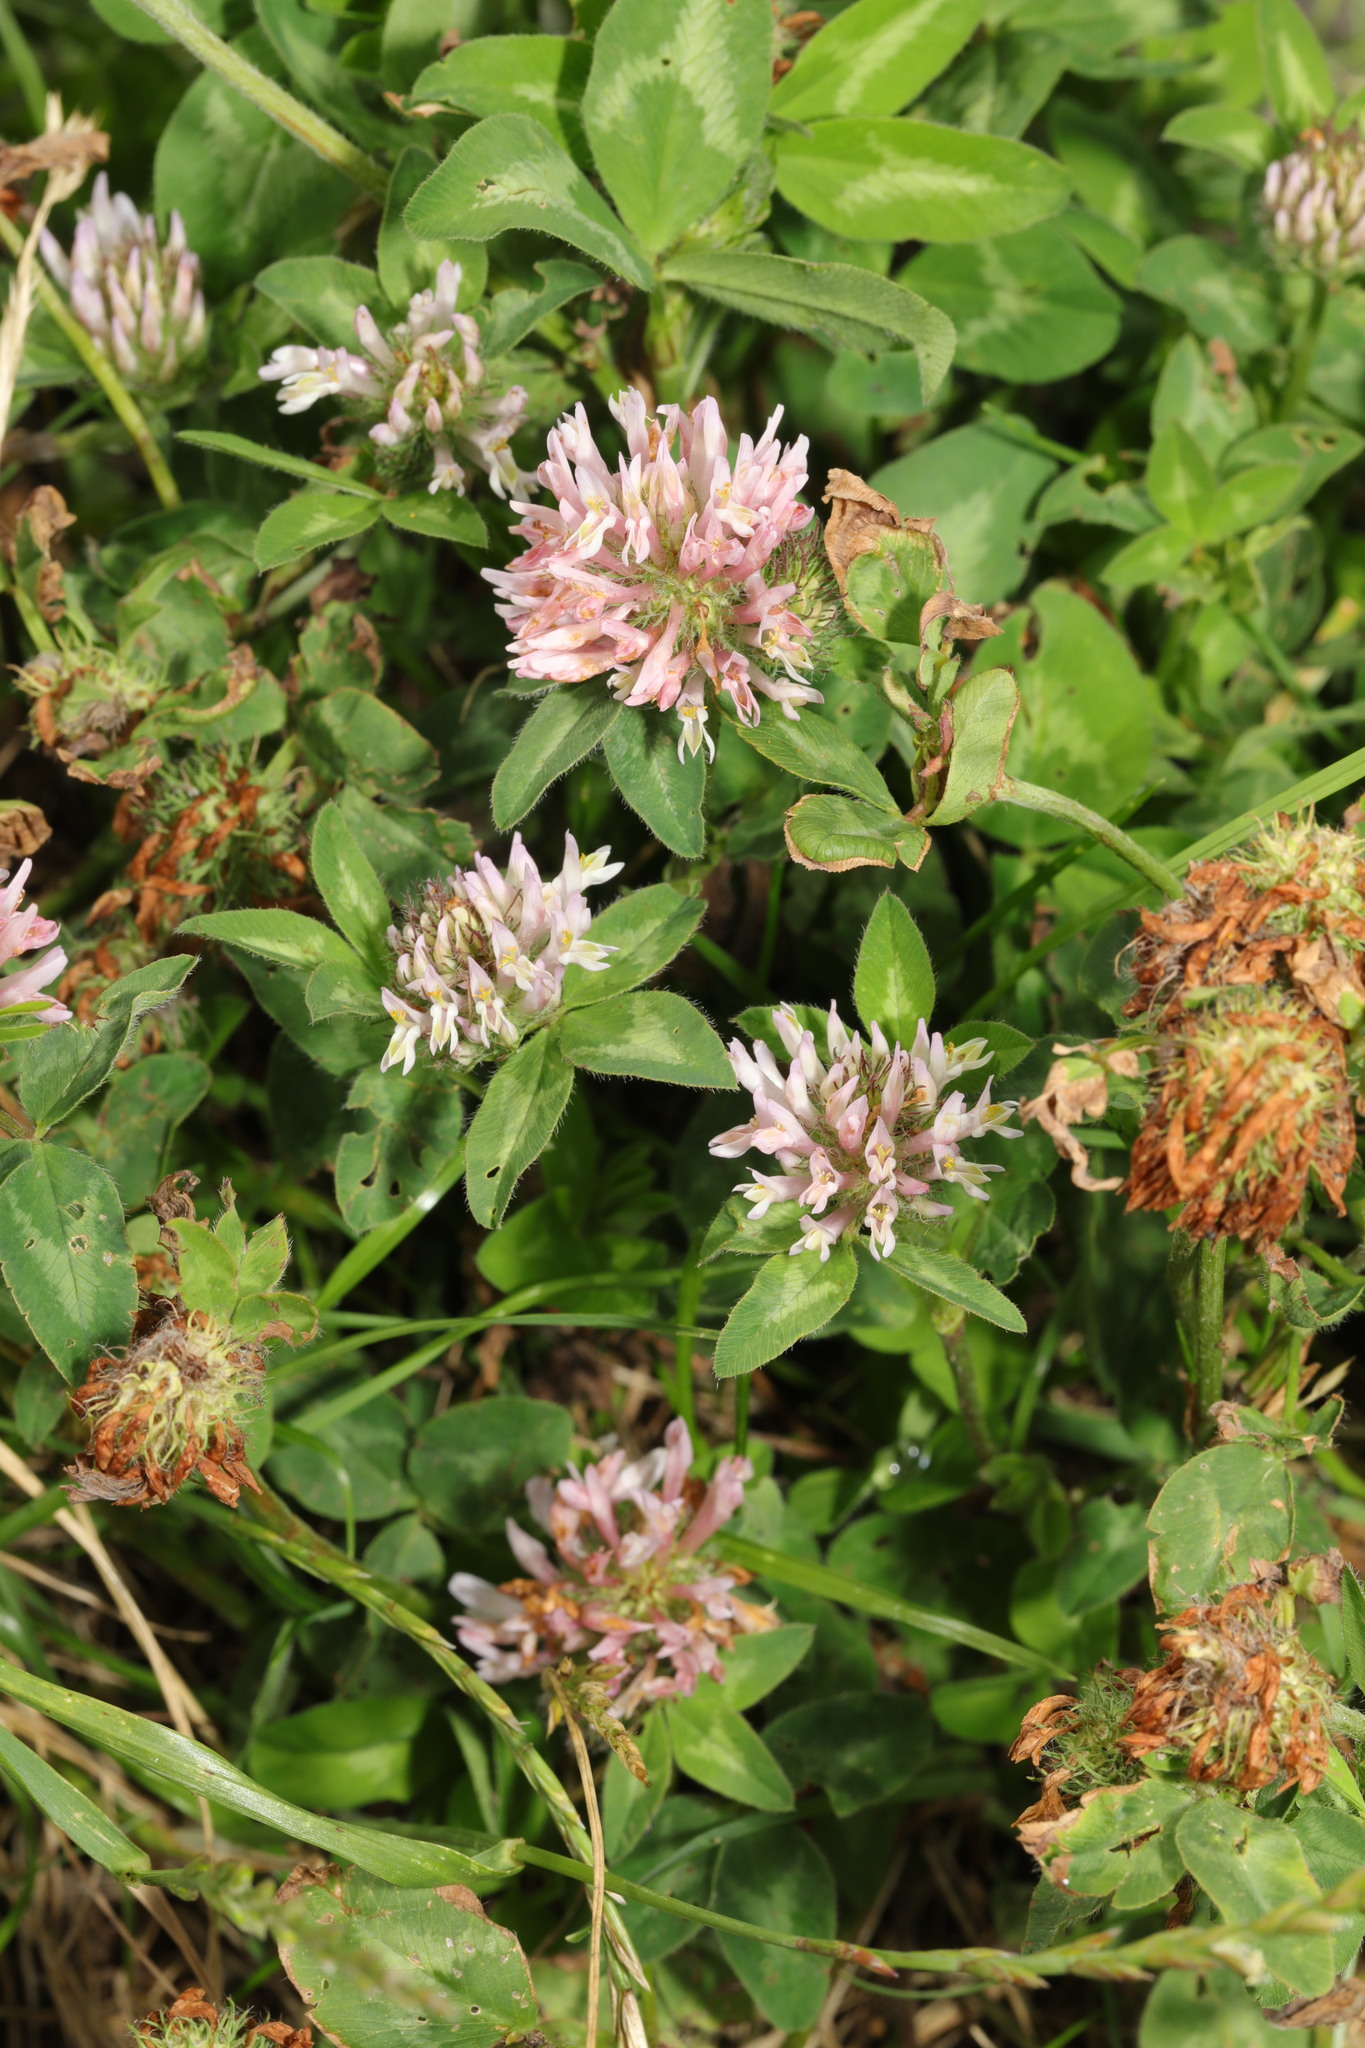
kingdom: Plantae
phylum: Tracheophyta
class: Magnoliopsida
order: Fabales
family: Fabaceae
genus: Trifolium
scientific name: Trifolium pratense
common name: Red clover
